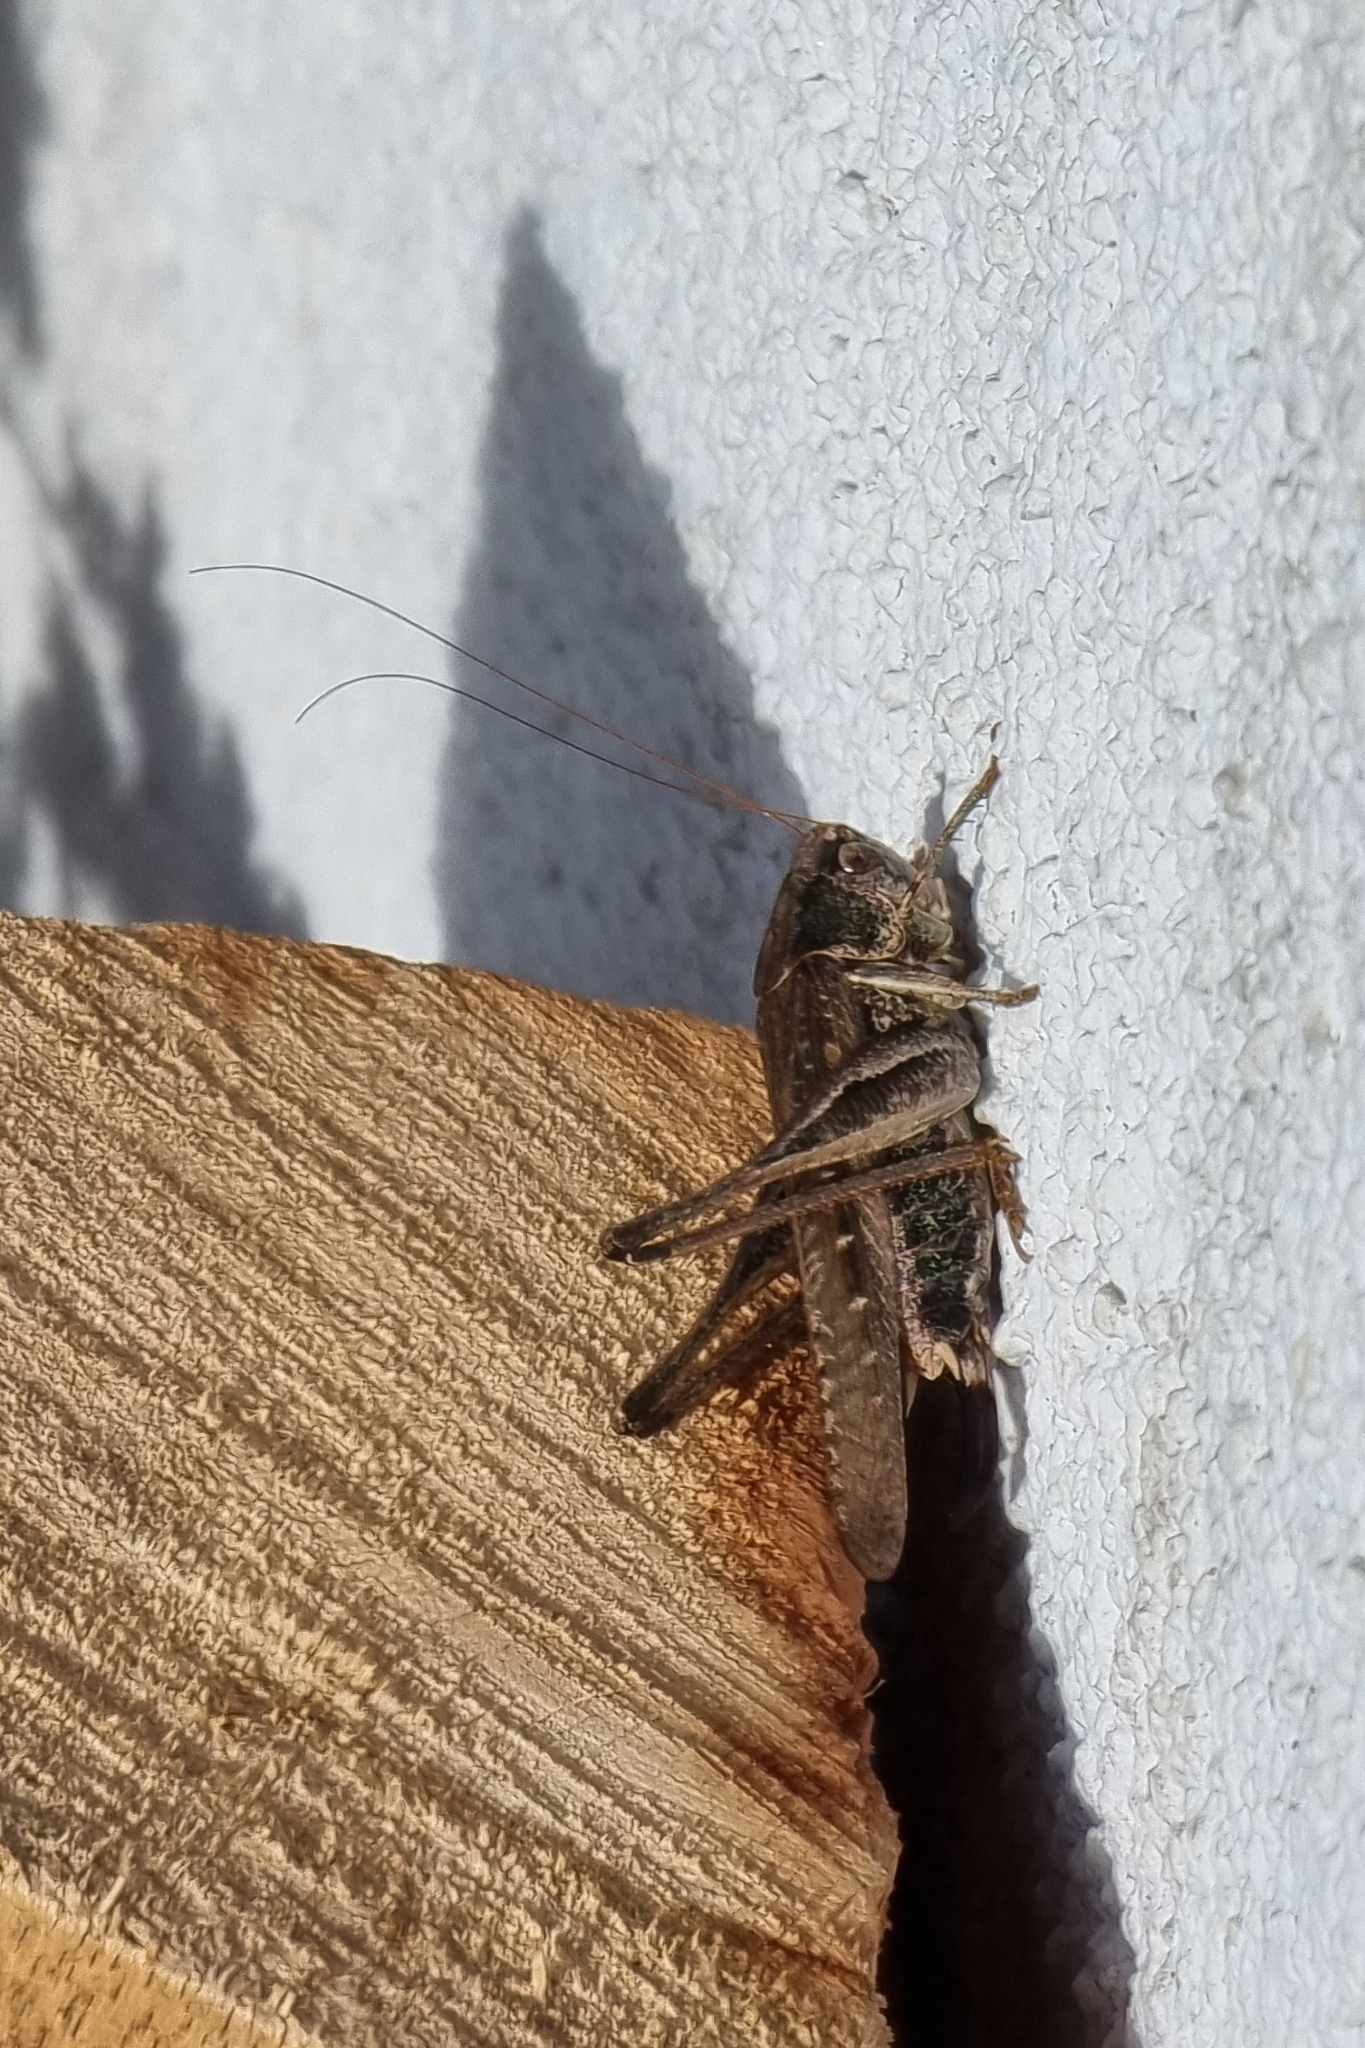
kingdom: Animalia
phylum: Arthropoda
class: Insecta
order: Orthoptera
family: Tettigoniidae
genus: Platycleis
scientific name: Platycleis grisea
